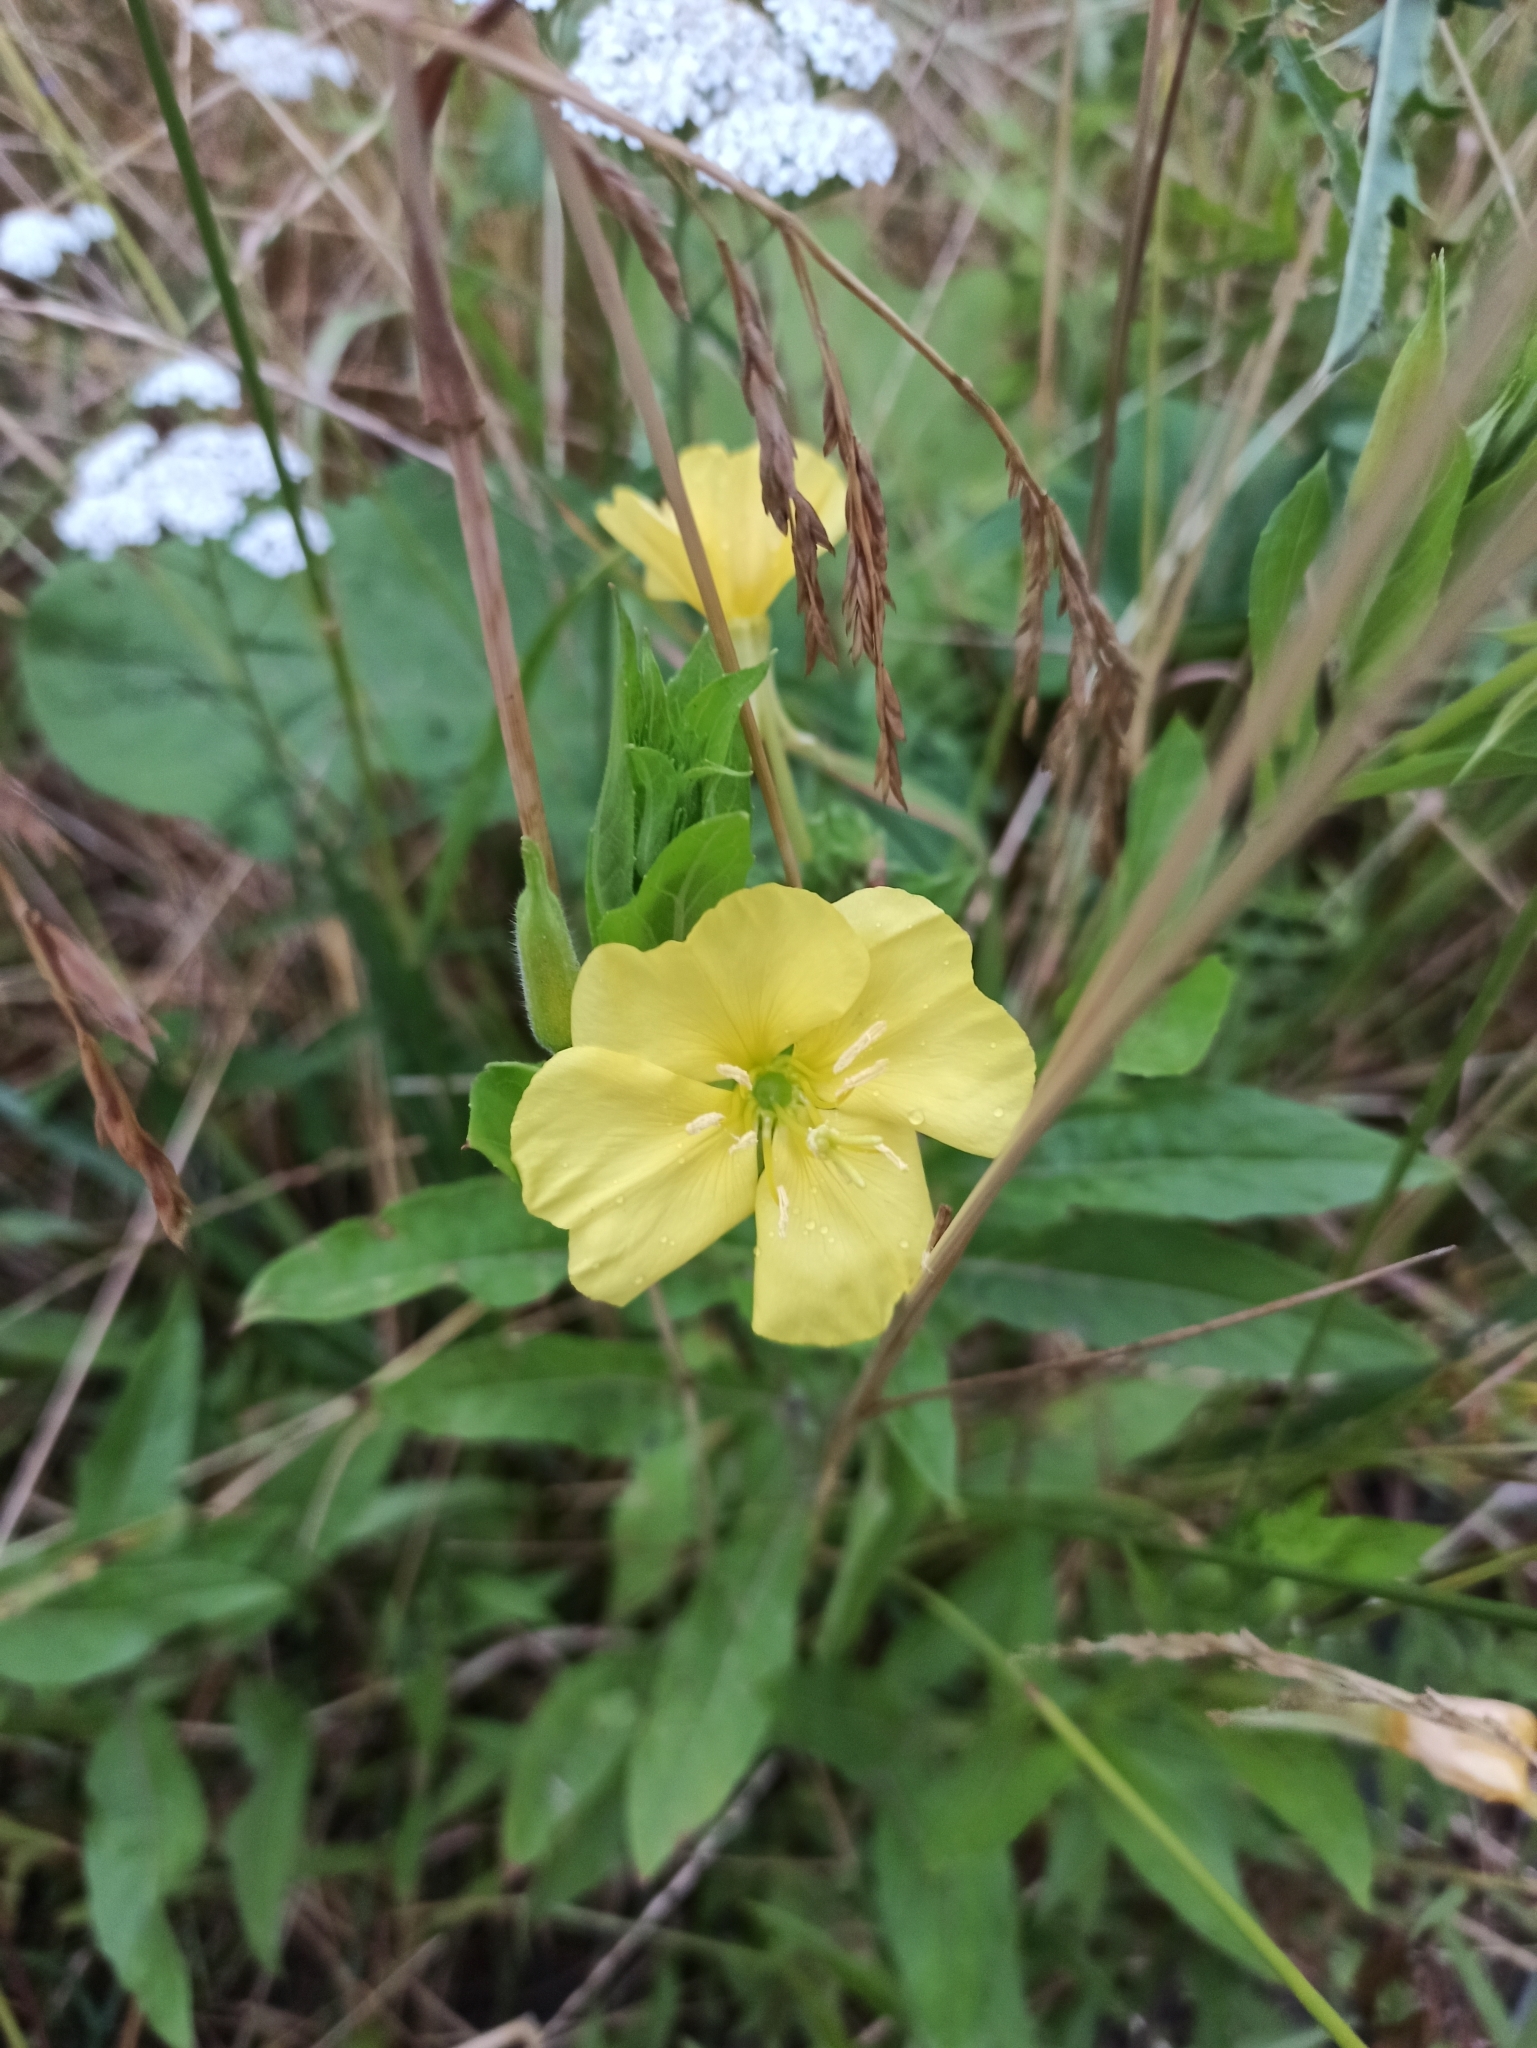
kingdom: Plantae
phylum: Tracheophyta
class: Magnoliopsida
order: Myrtales
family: Onagraceae
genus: Oenothera
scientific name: Oenothera biennis
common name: Common evening-primrose
